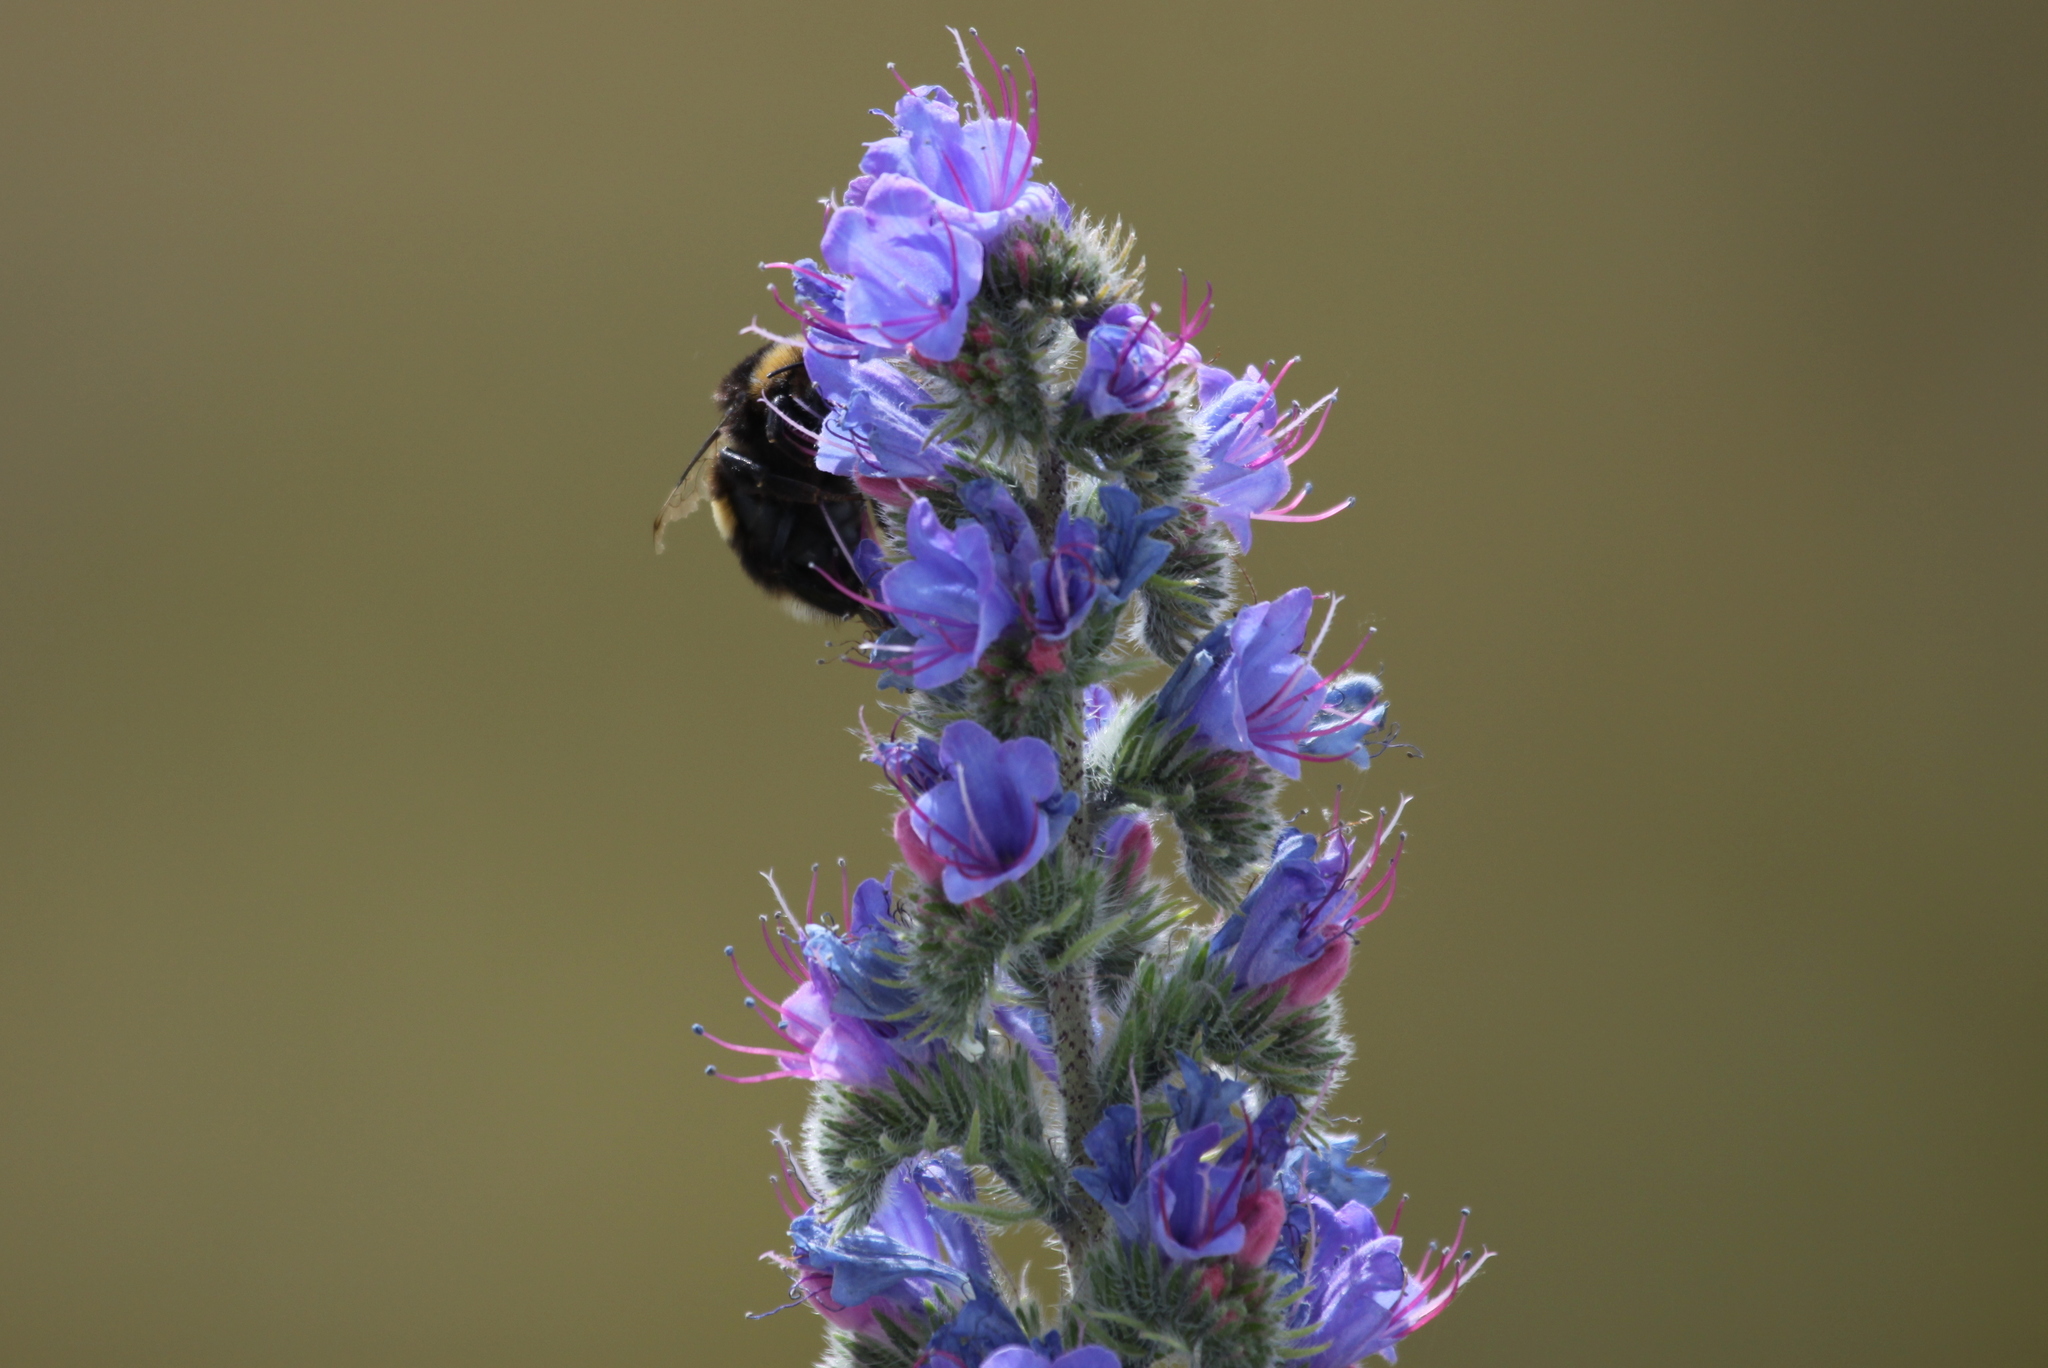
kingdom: Plantae
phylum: Tracheophyta
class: Magnoliopsida
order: Boraginales
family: Boraginaceae
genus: Echium
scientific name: Echium vulgare
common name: Common viper's bugloss
